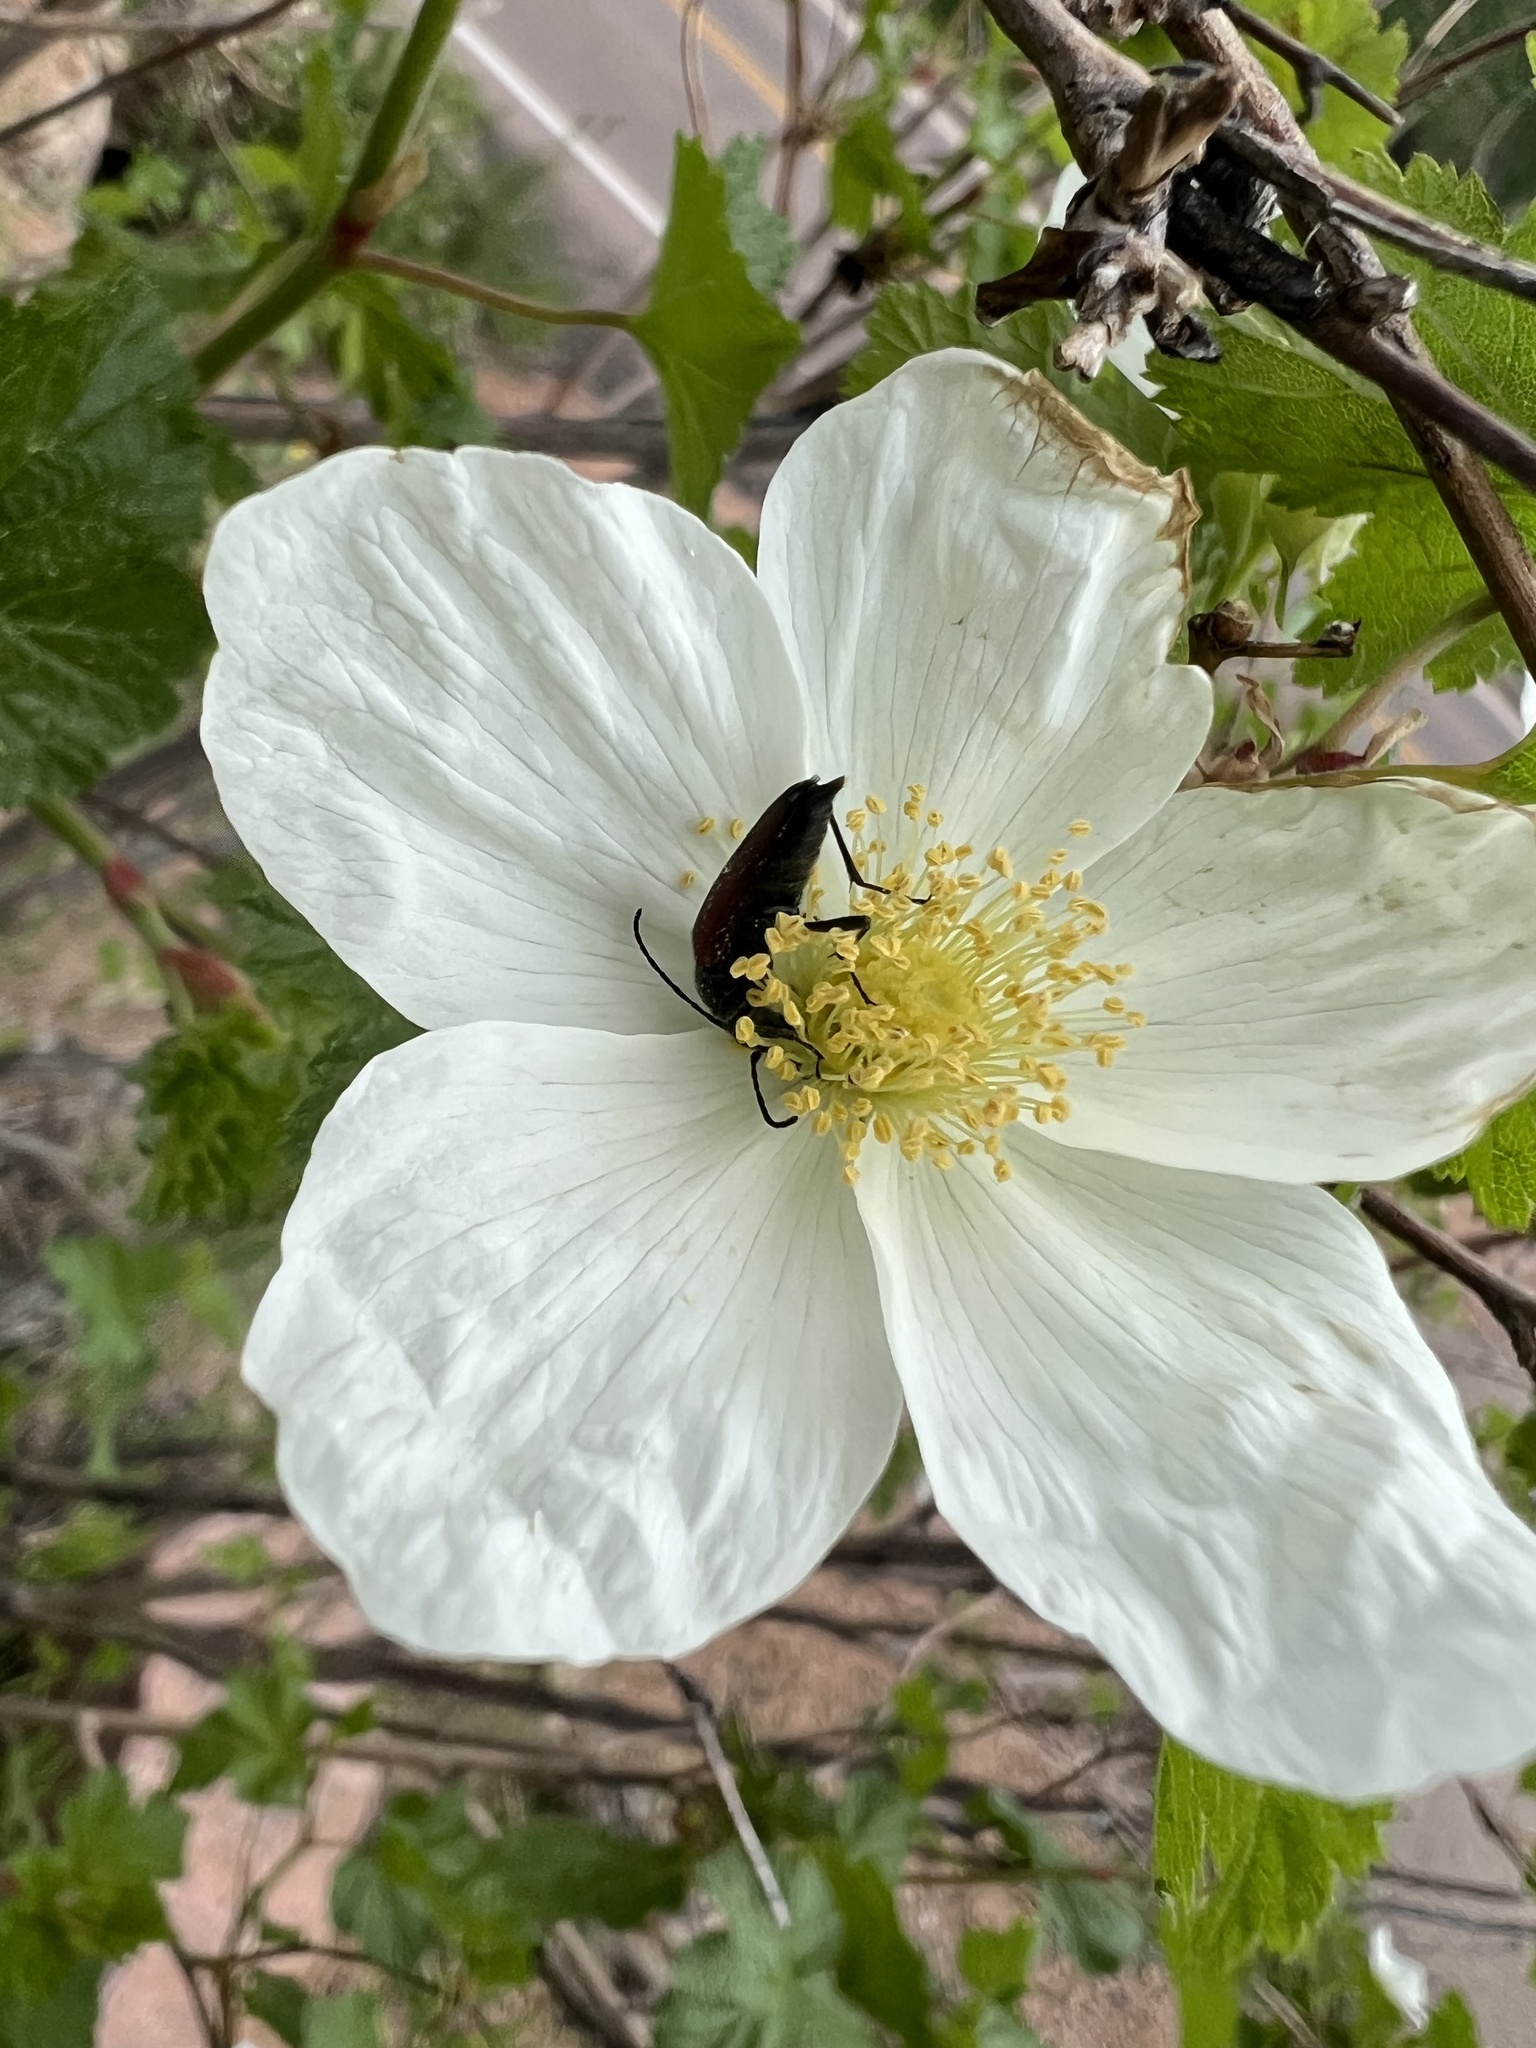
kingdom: Plantae
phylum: Tracheophyta
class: Magnoliopsida
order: Rosales
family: Rosaceae
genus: Rubus
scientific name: Rubus deliciosus
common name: Rocky mountain raspberry
